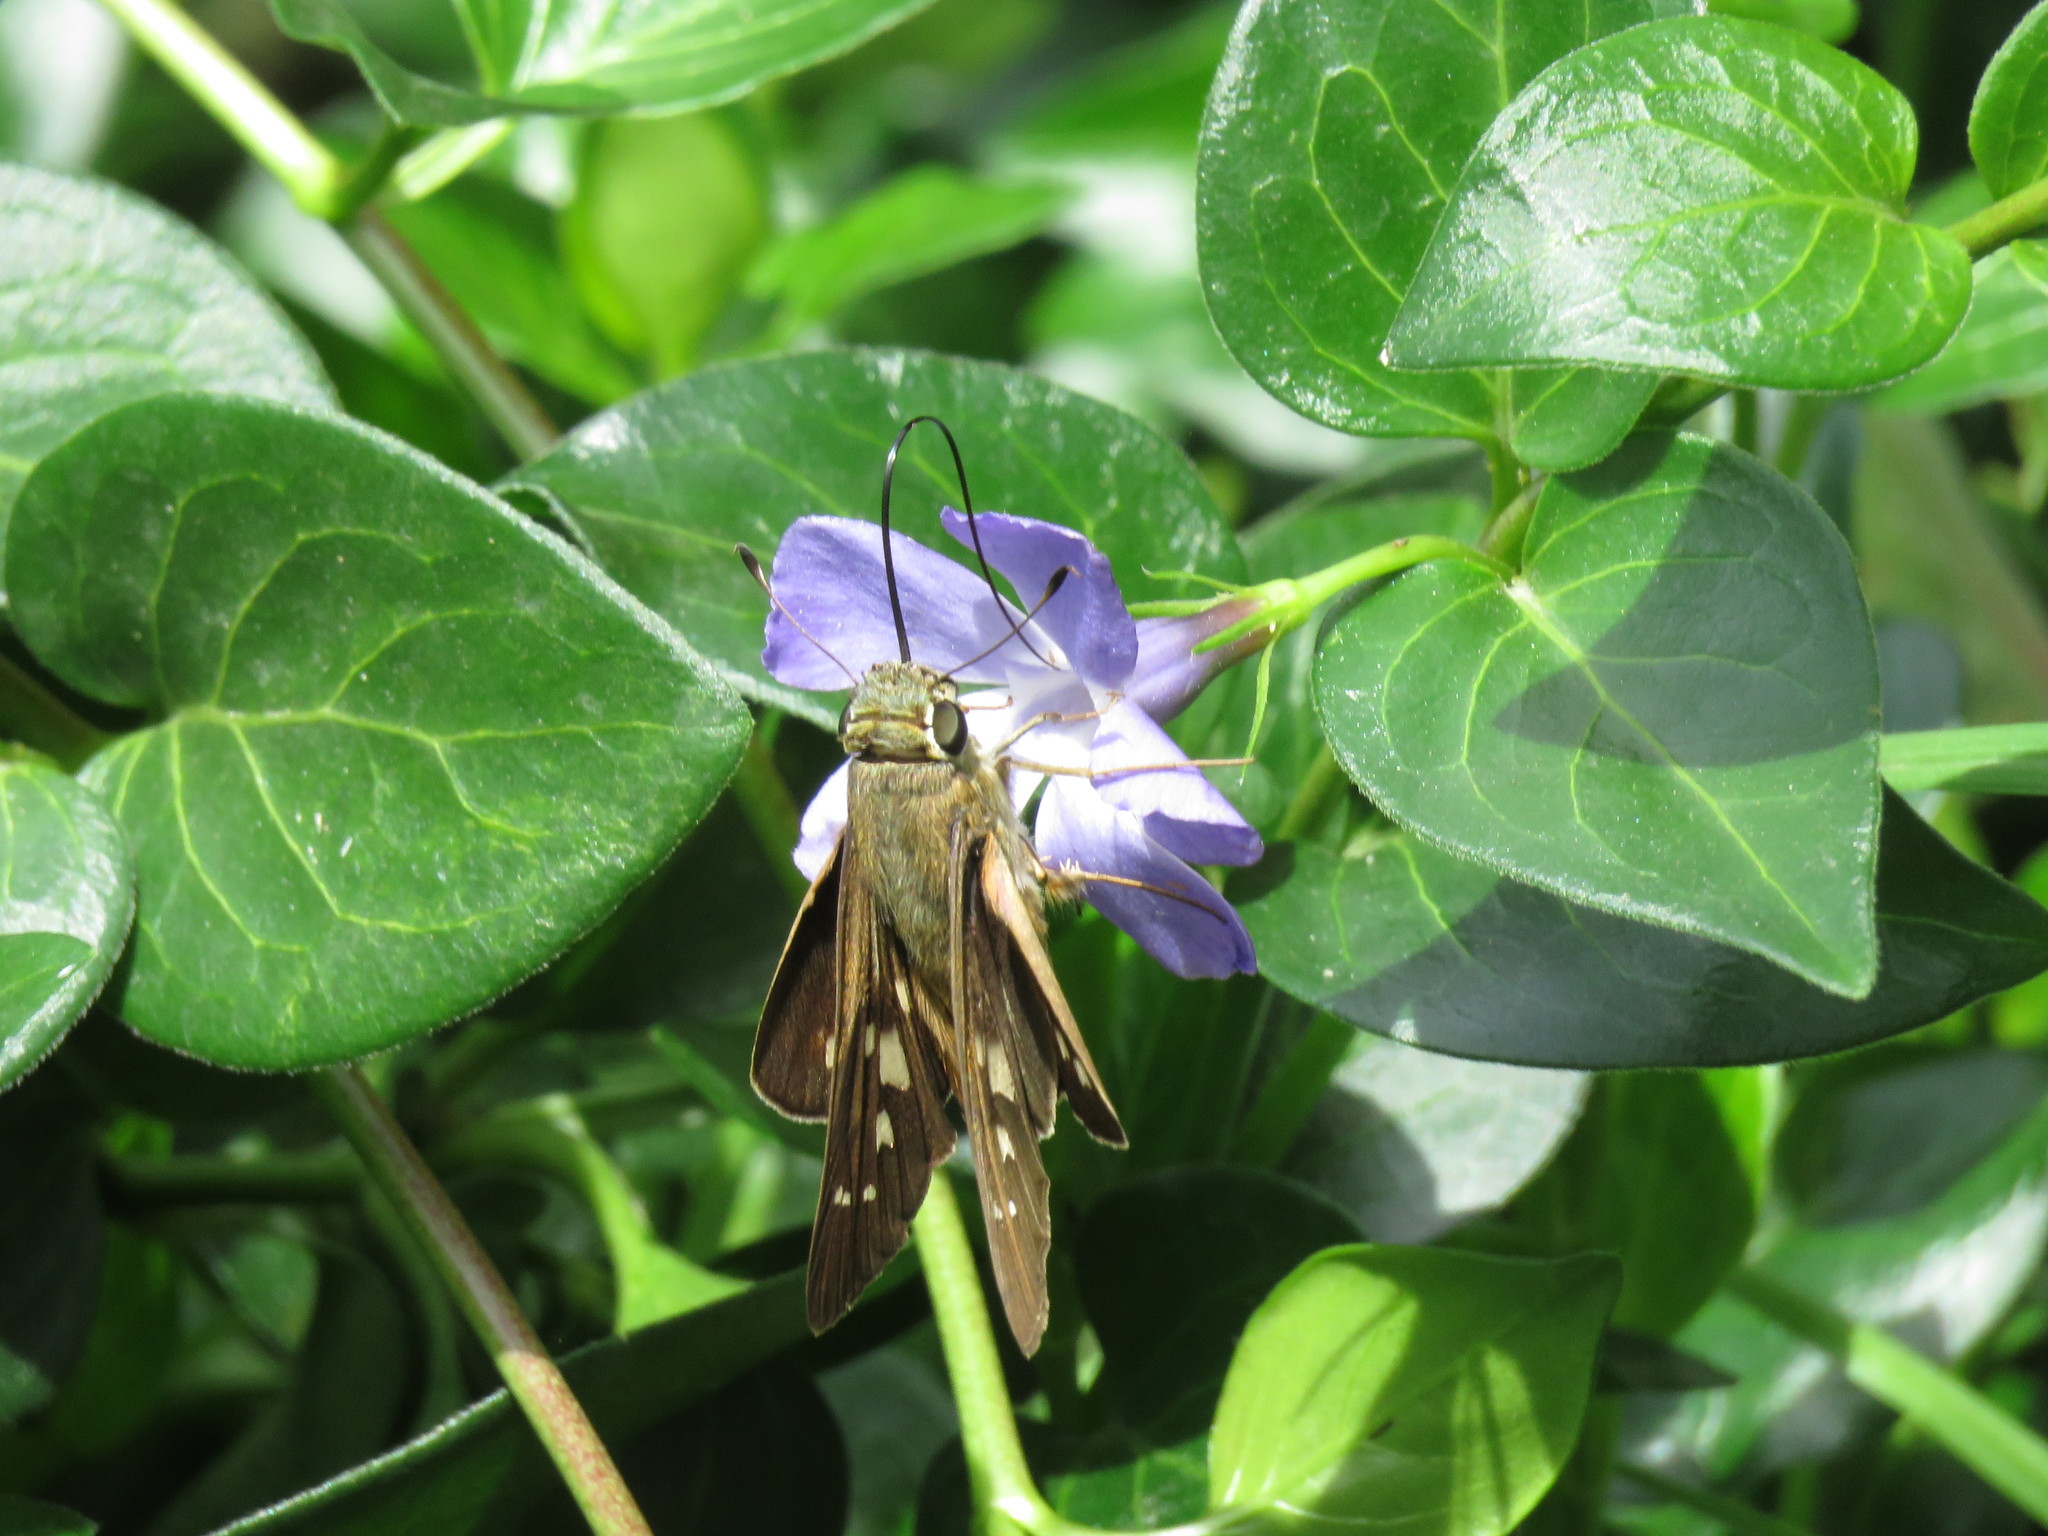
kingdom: Animalia
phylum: Arthropoda
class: Insecta
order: Lepidoptera
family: Hesperiidae
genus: Calpodes
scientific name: Calpodes ethlius
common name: Brazilian skipper
